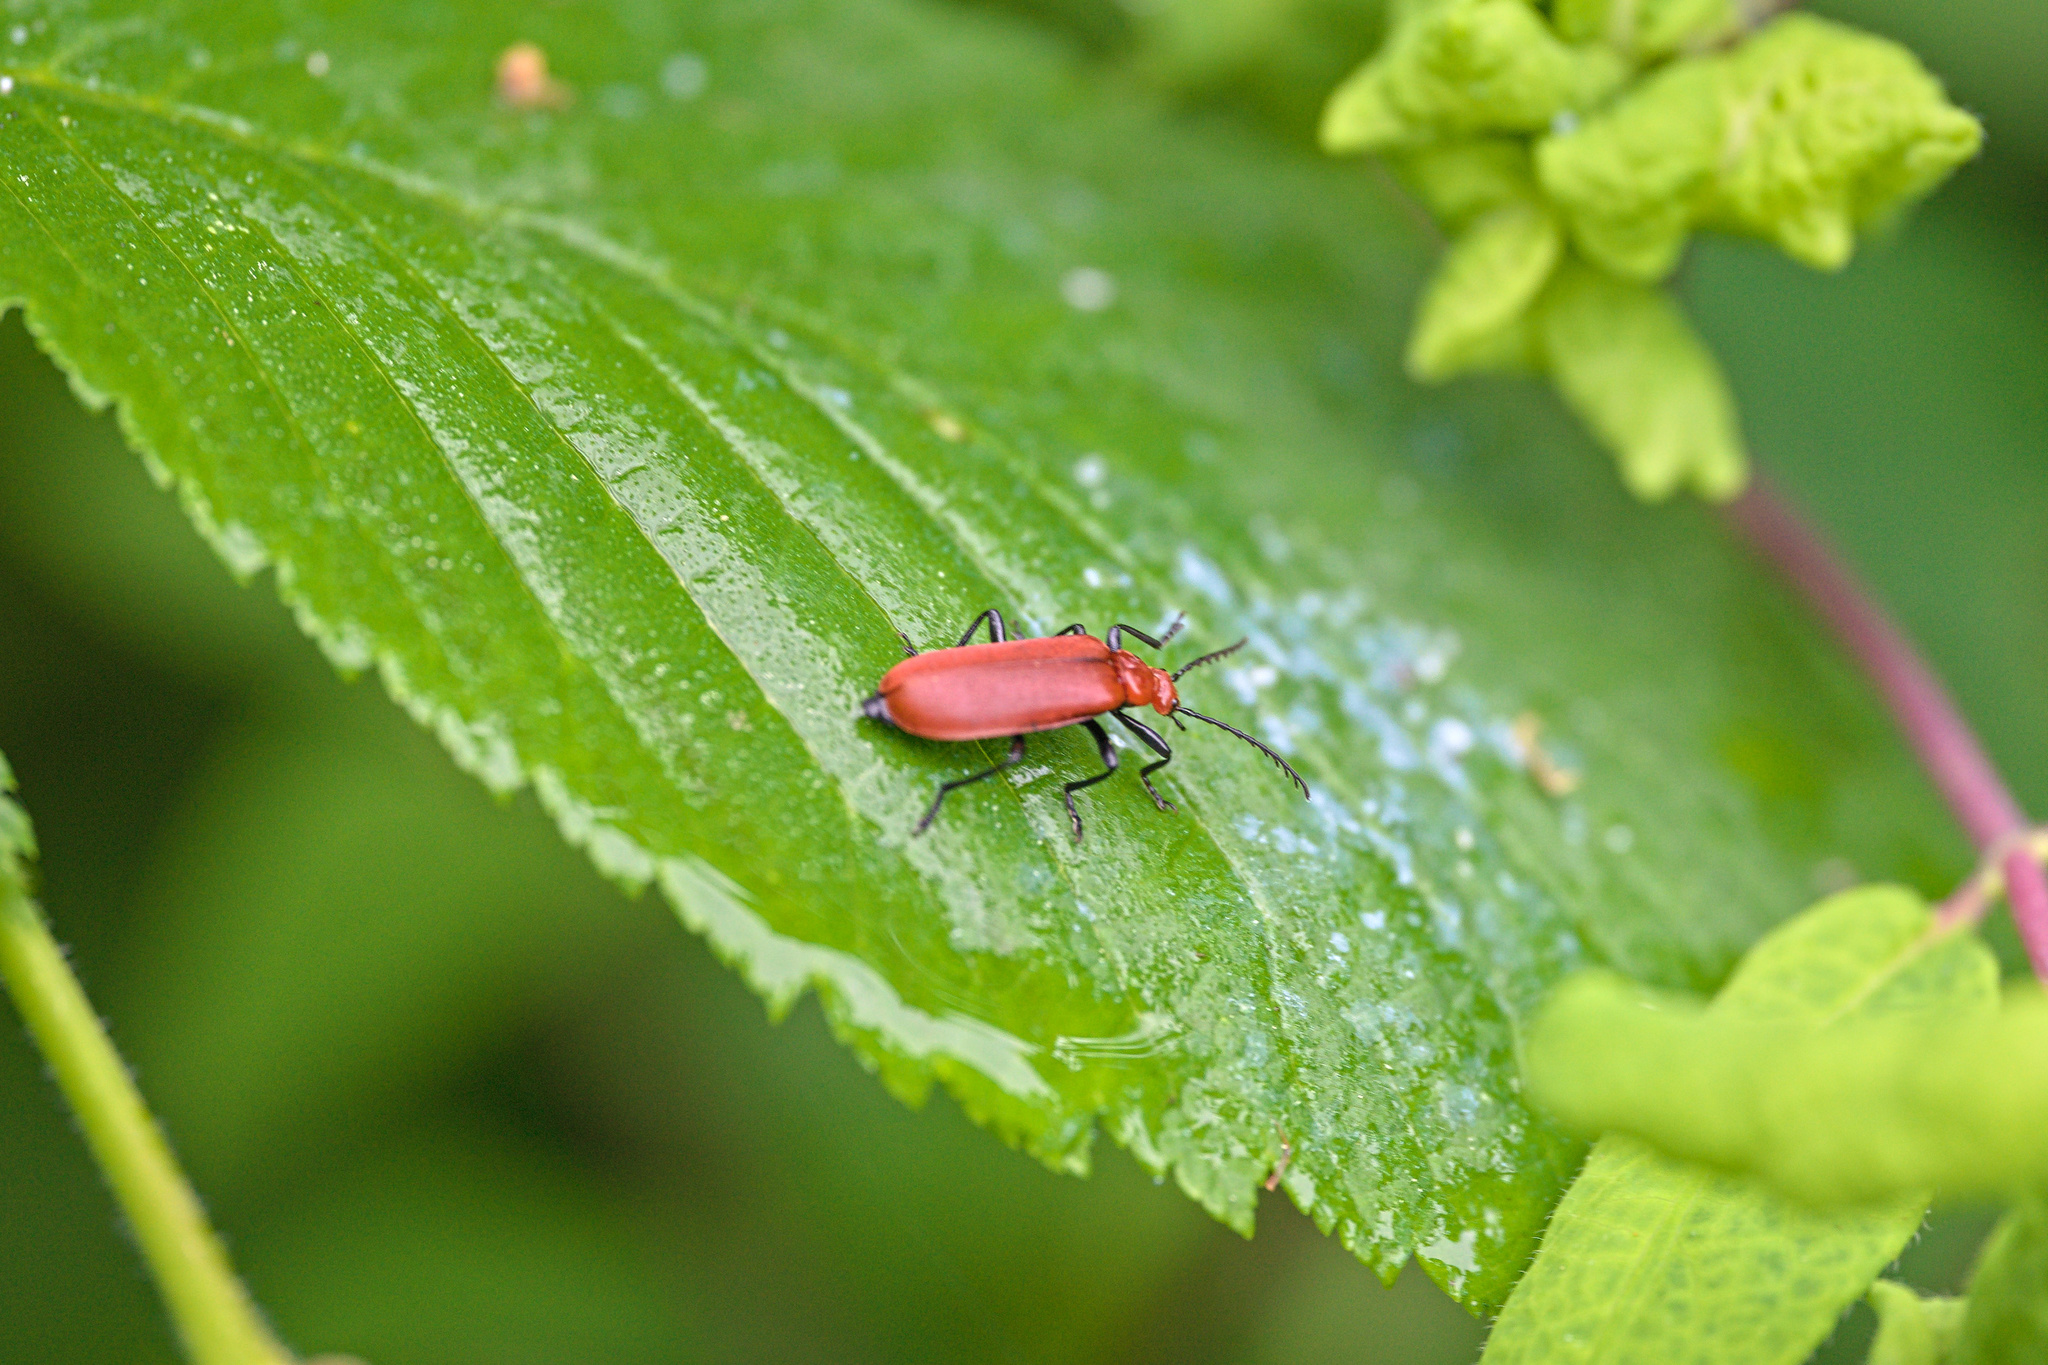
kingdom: Animalia
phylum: Arthropoda
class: Insecta
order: Coleoptera
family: Pyrochroidae
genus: Pyrochroa
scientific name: Pyrochroa serraticornis
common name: Red-headed cardinal beetle
